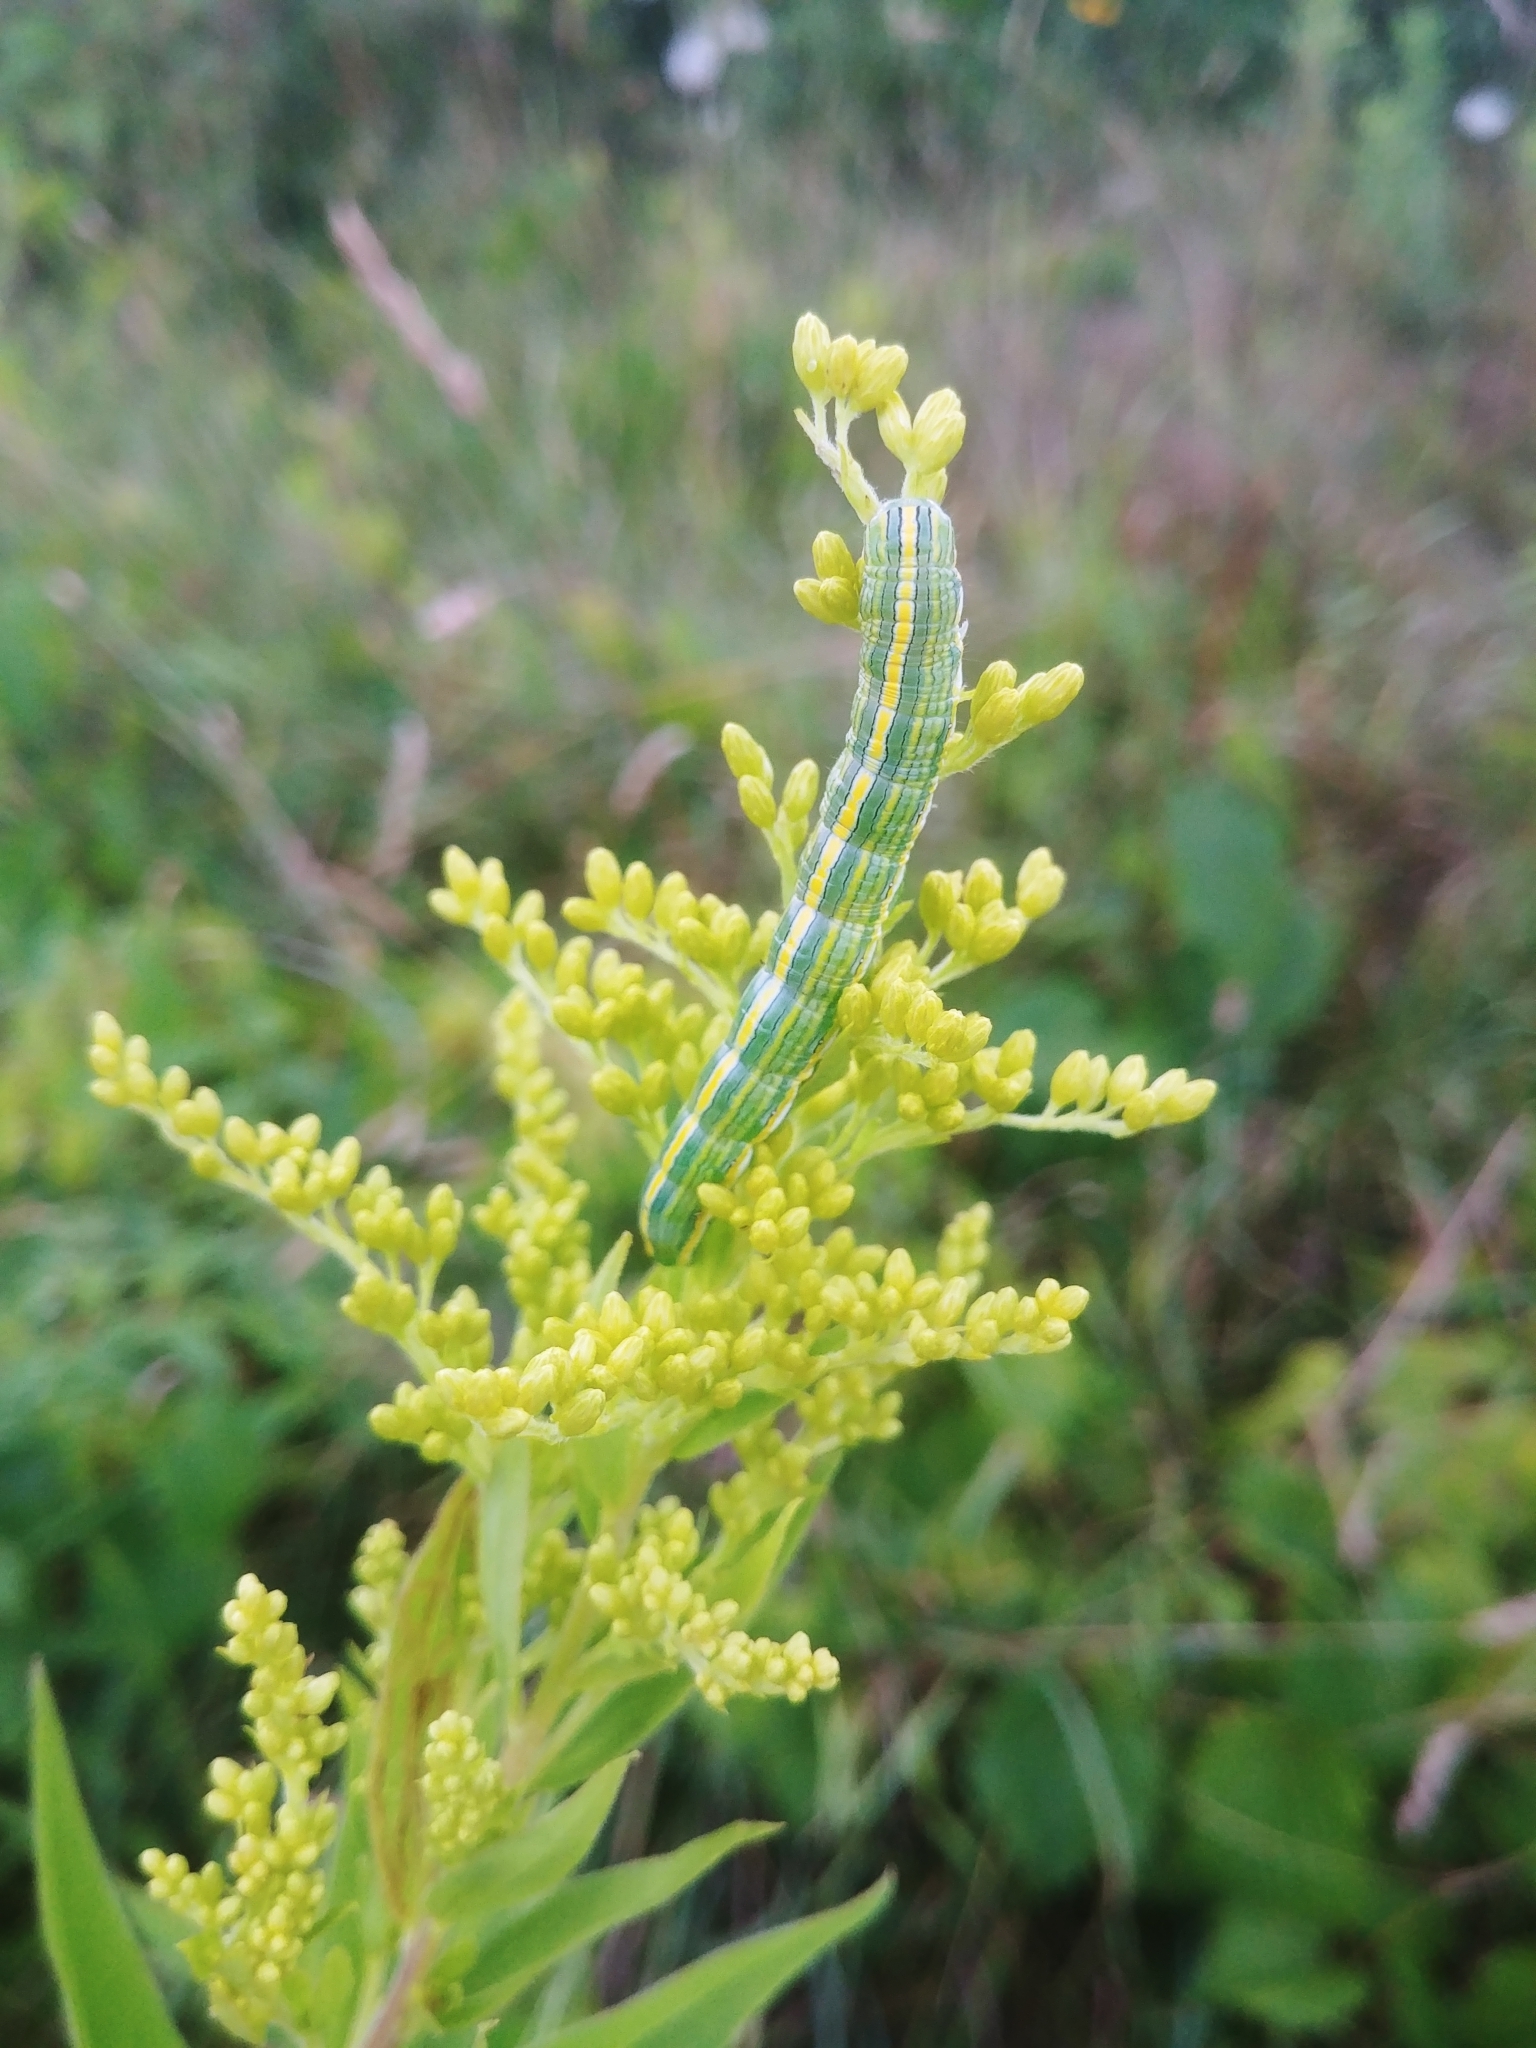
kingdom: Animalia
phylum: Arthropoda
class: Insecta
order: Lepidoptera
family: Noctuidae
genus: Cucullia
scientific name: Cucullia asteroides
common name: Asteroid moth
